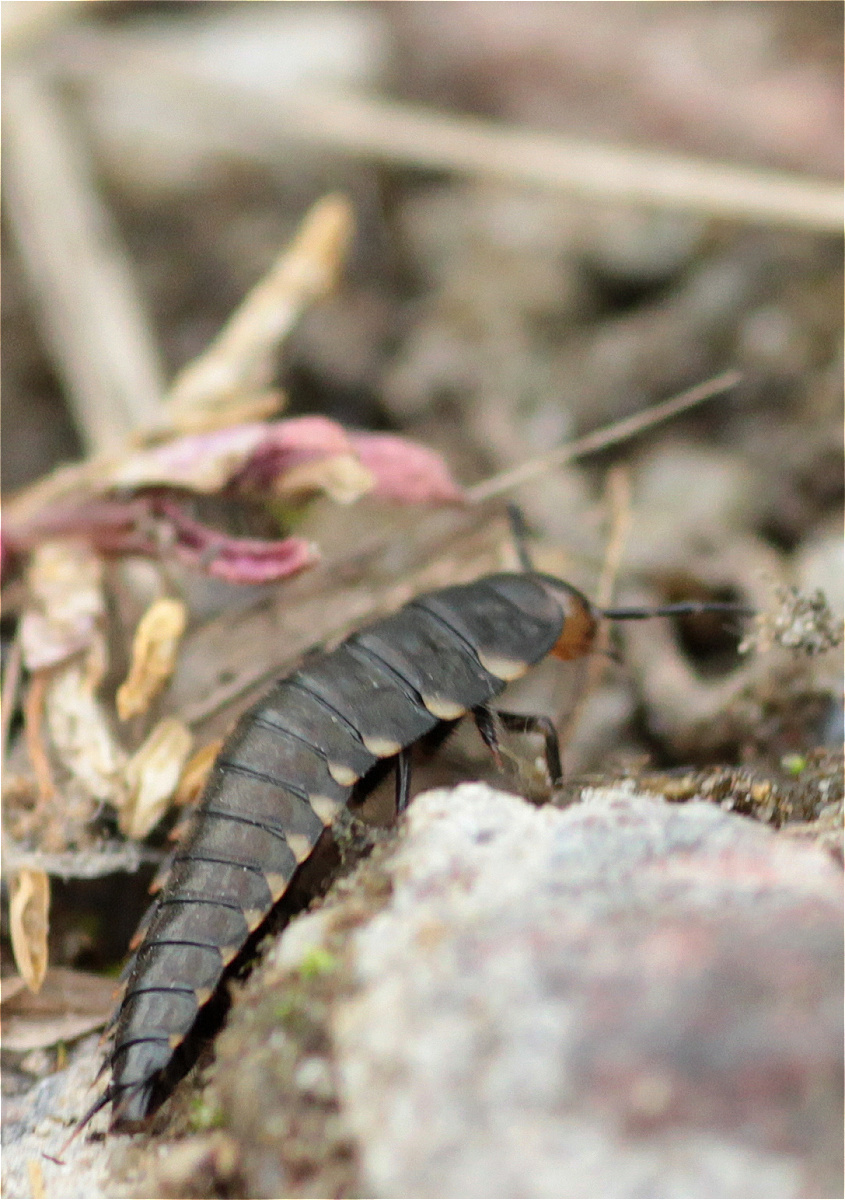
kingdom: Animalia
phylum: Arthropoda
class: Insecta
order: Coleoptera
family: Staphylinidae
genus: Silpha
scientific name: Silpha tristis
